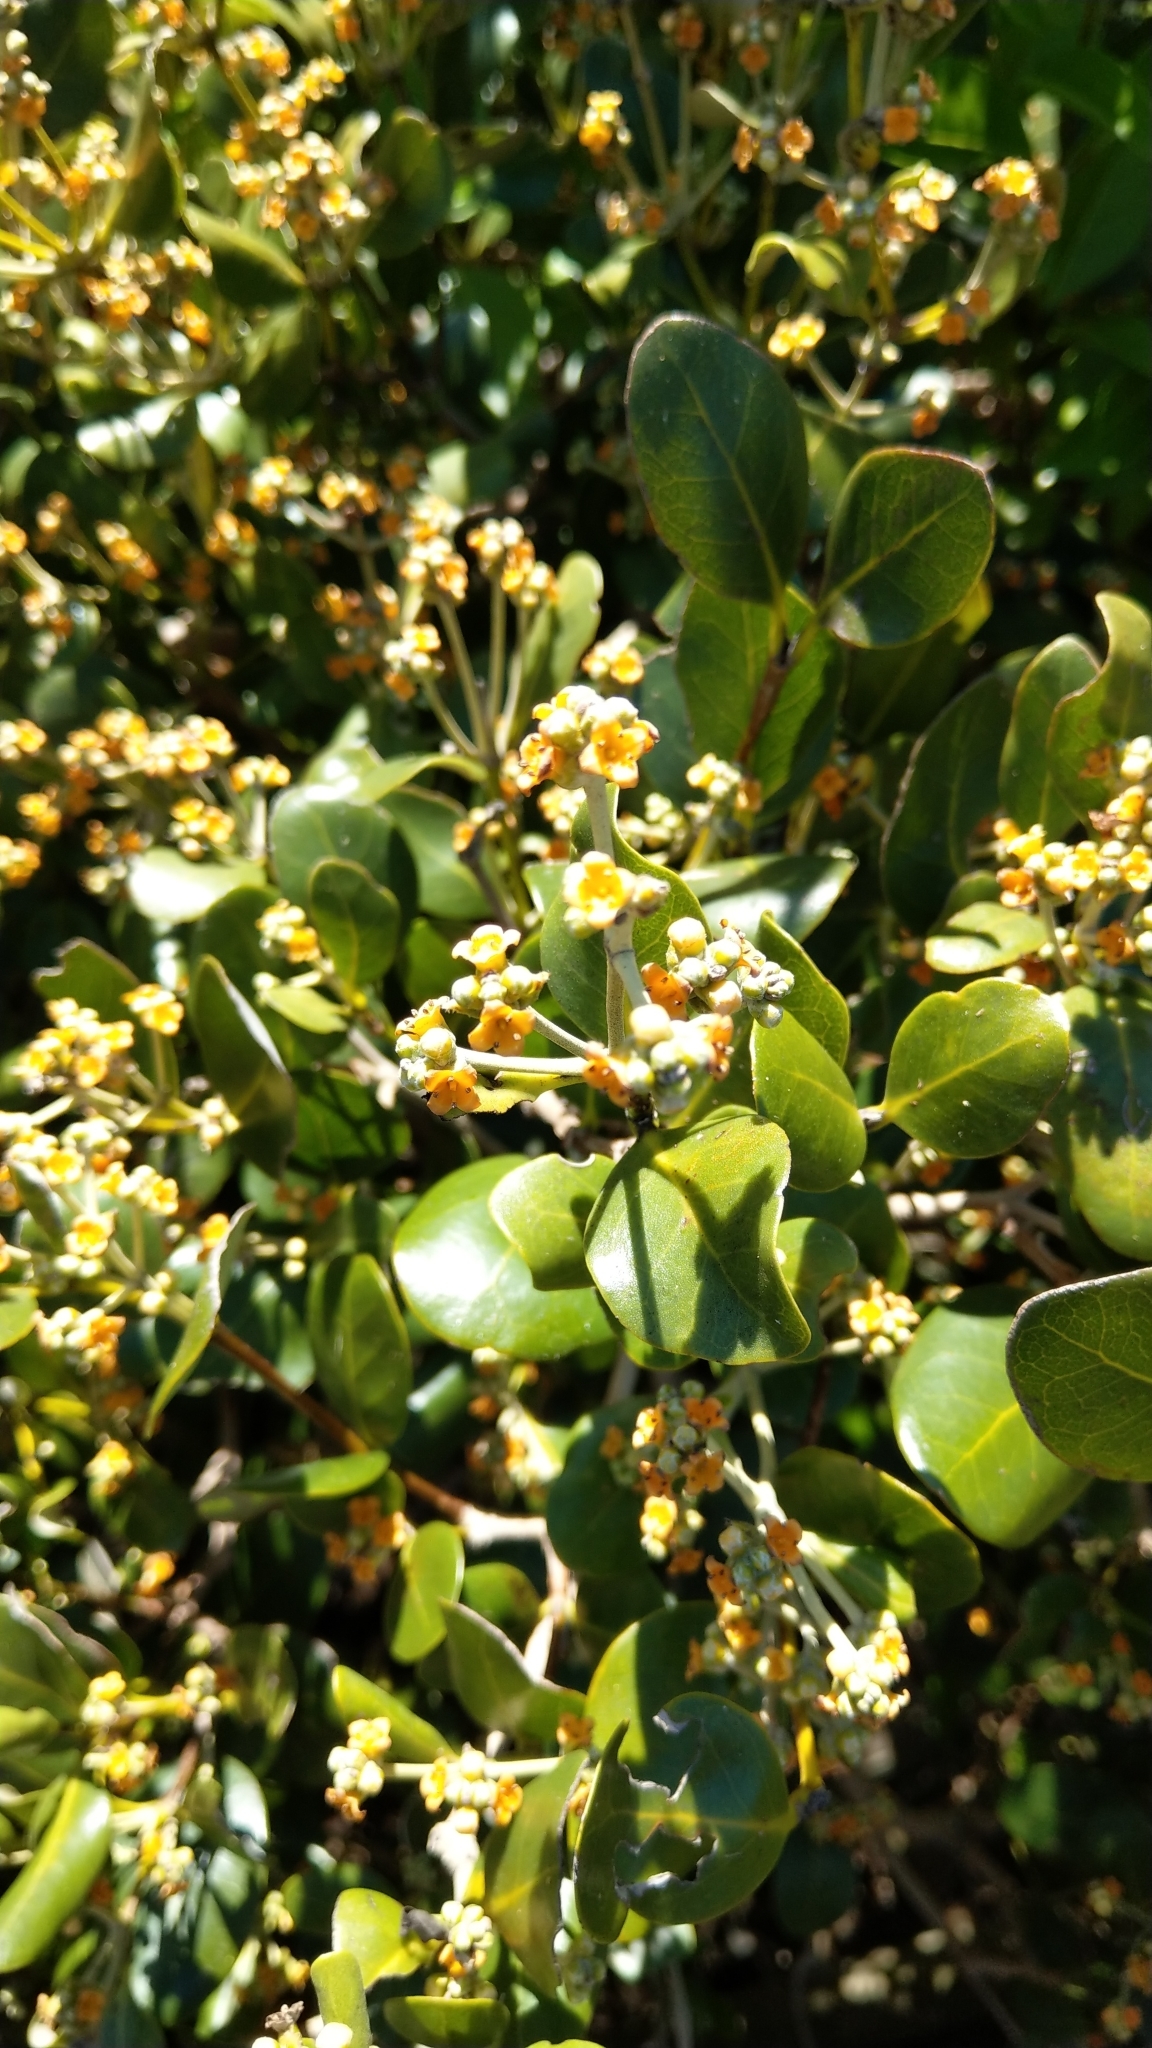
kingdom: Plantae
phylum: Tracheophyta
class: Magnoliopsida
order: Lamiales
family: Acanthaceae
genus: Avicennia
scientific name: Avicennia marina
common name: Gray mangrove
